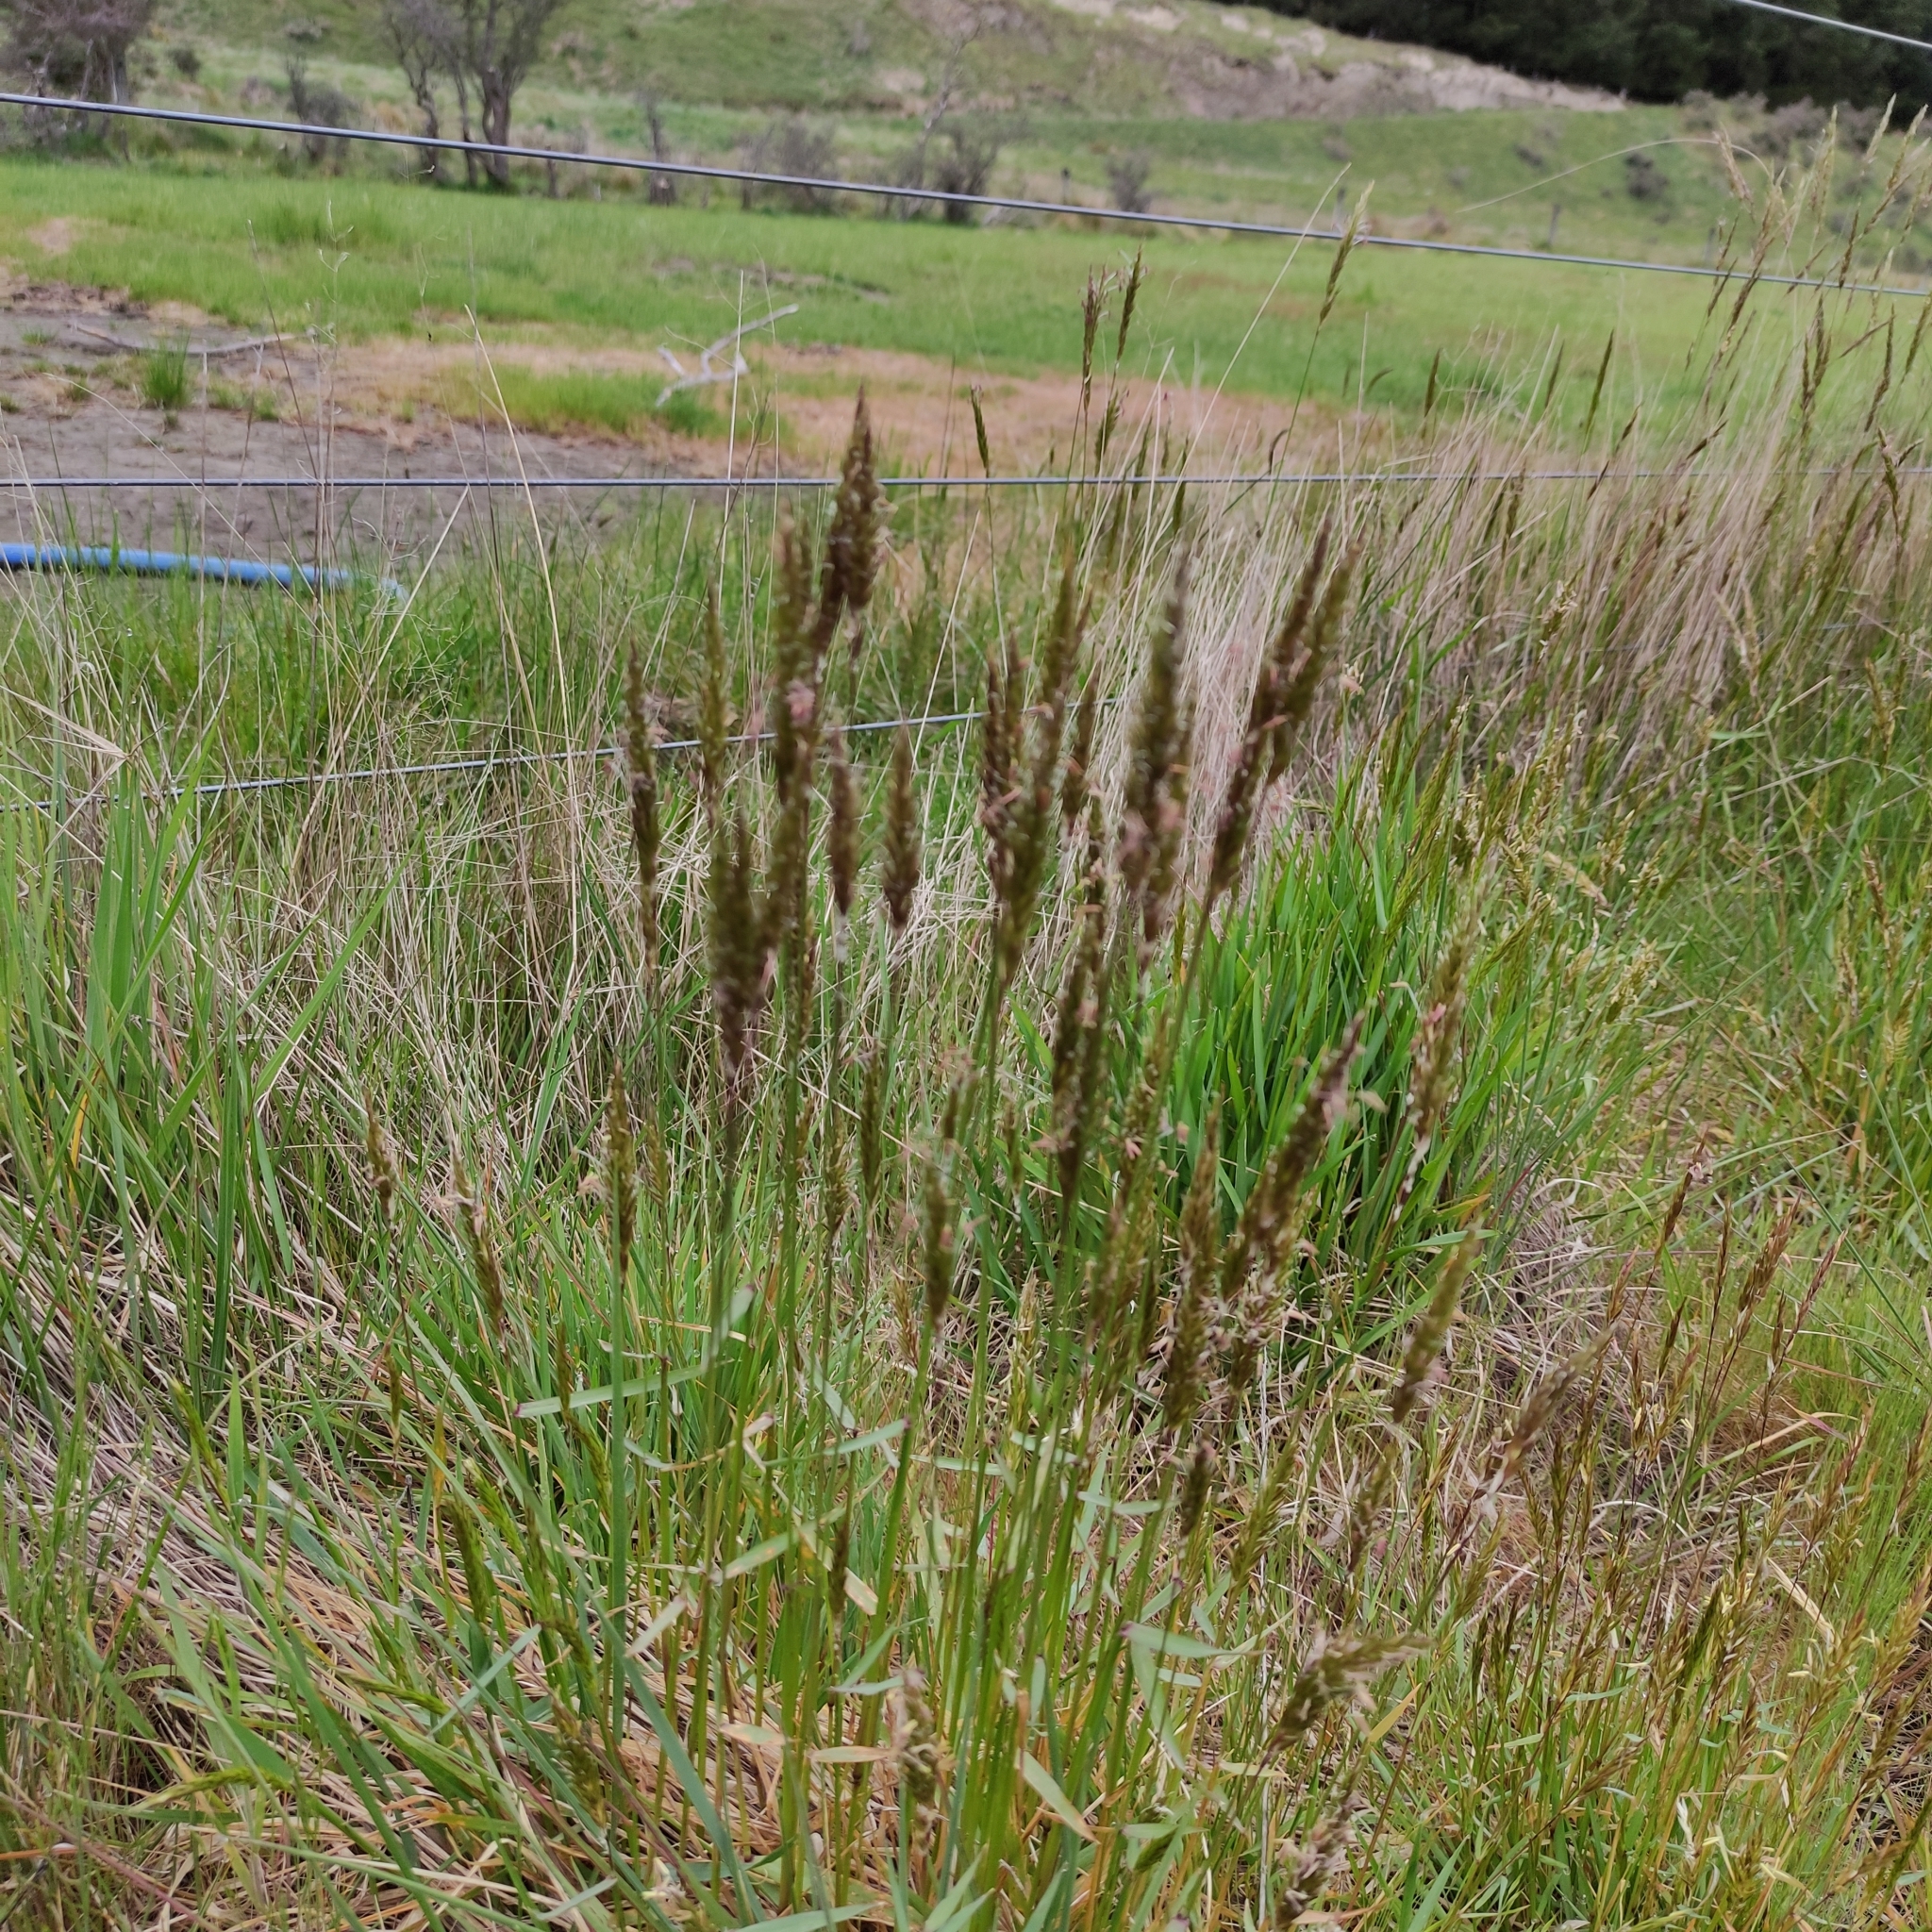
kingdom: Plantae
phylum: Tracheophyta
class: Liliopsida
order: Poales
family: Poaceae
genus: Anthoxanthum
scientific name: Anthoxanthum odoratum
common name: Sweet vernalgrass
